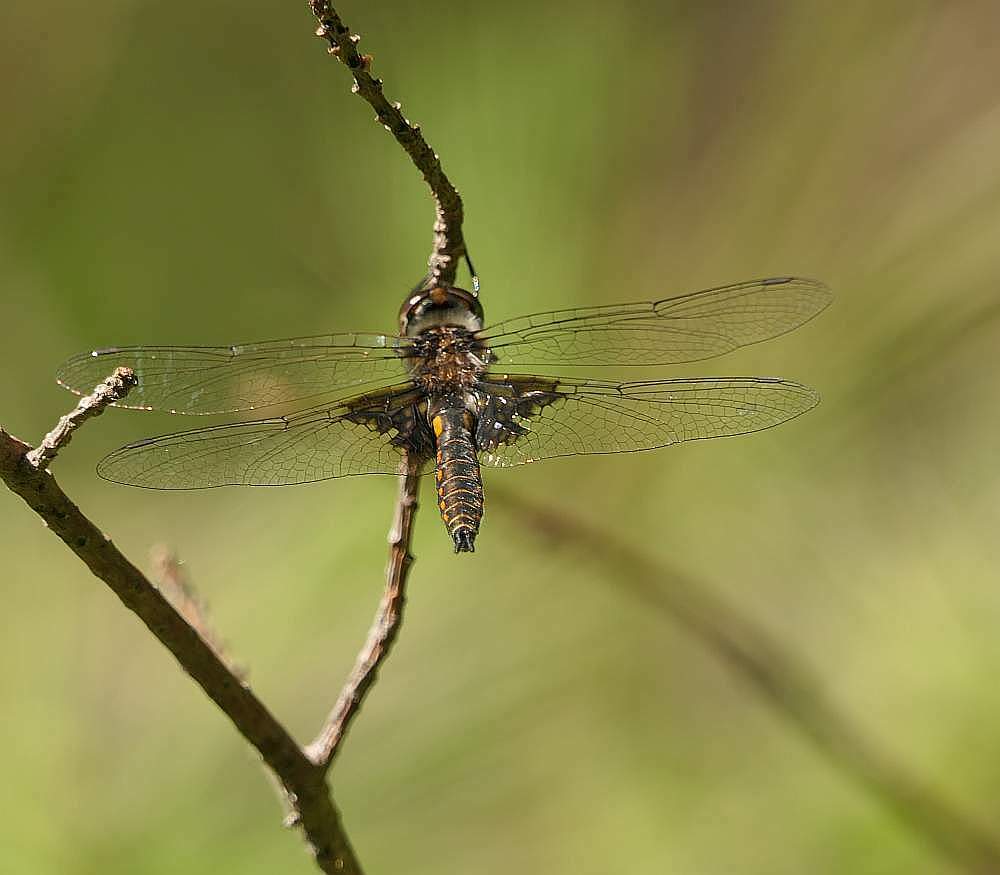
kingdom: Animalia
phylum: Arthropoda
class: Insecta
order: Odonata
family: Corduliidae
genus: Epitheca
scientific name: Epitheca cynosura
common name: Common baskettail
